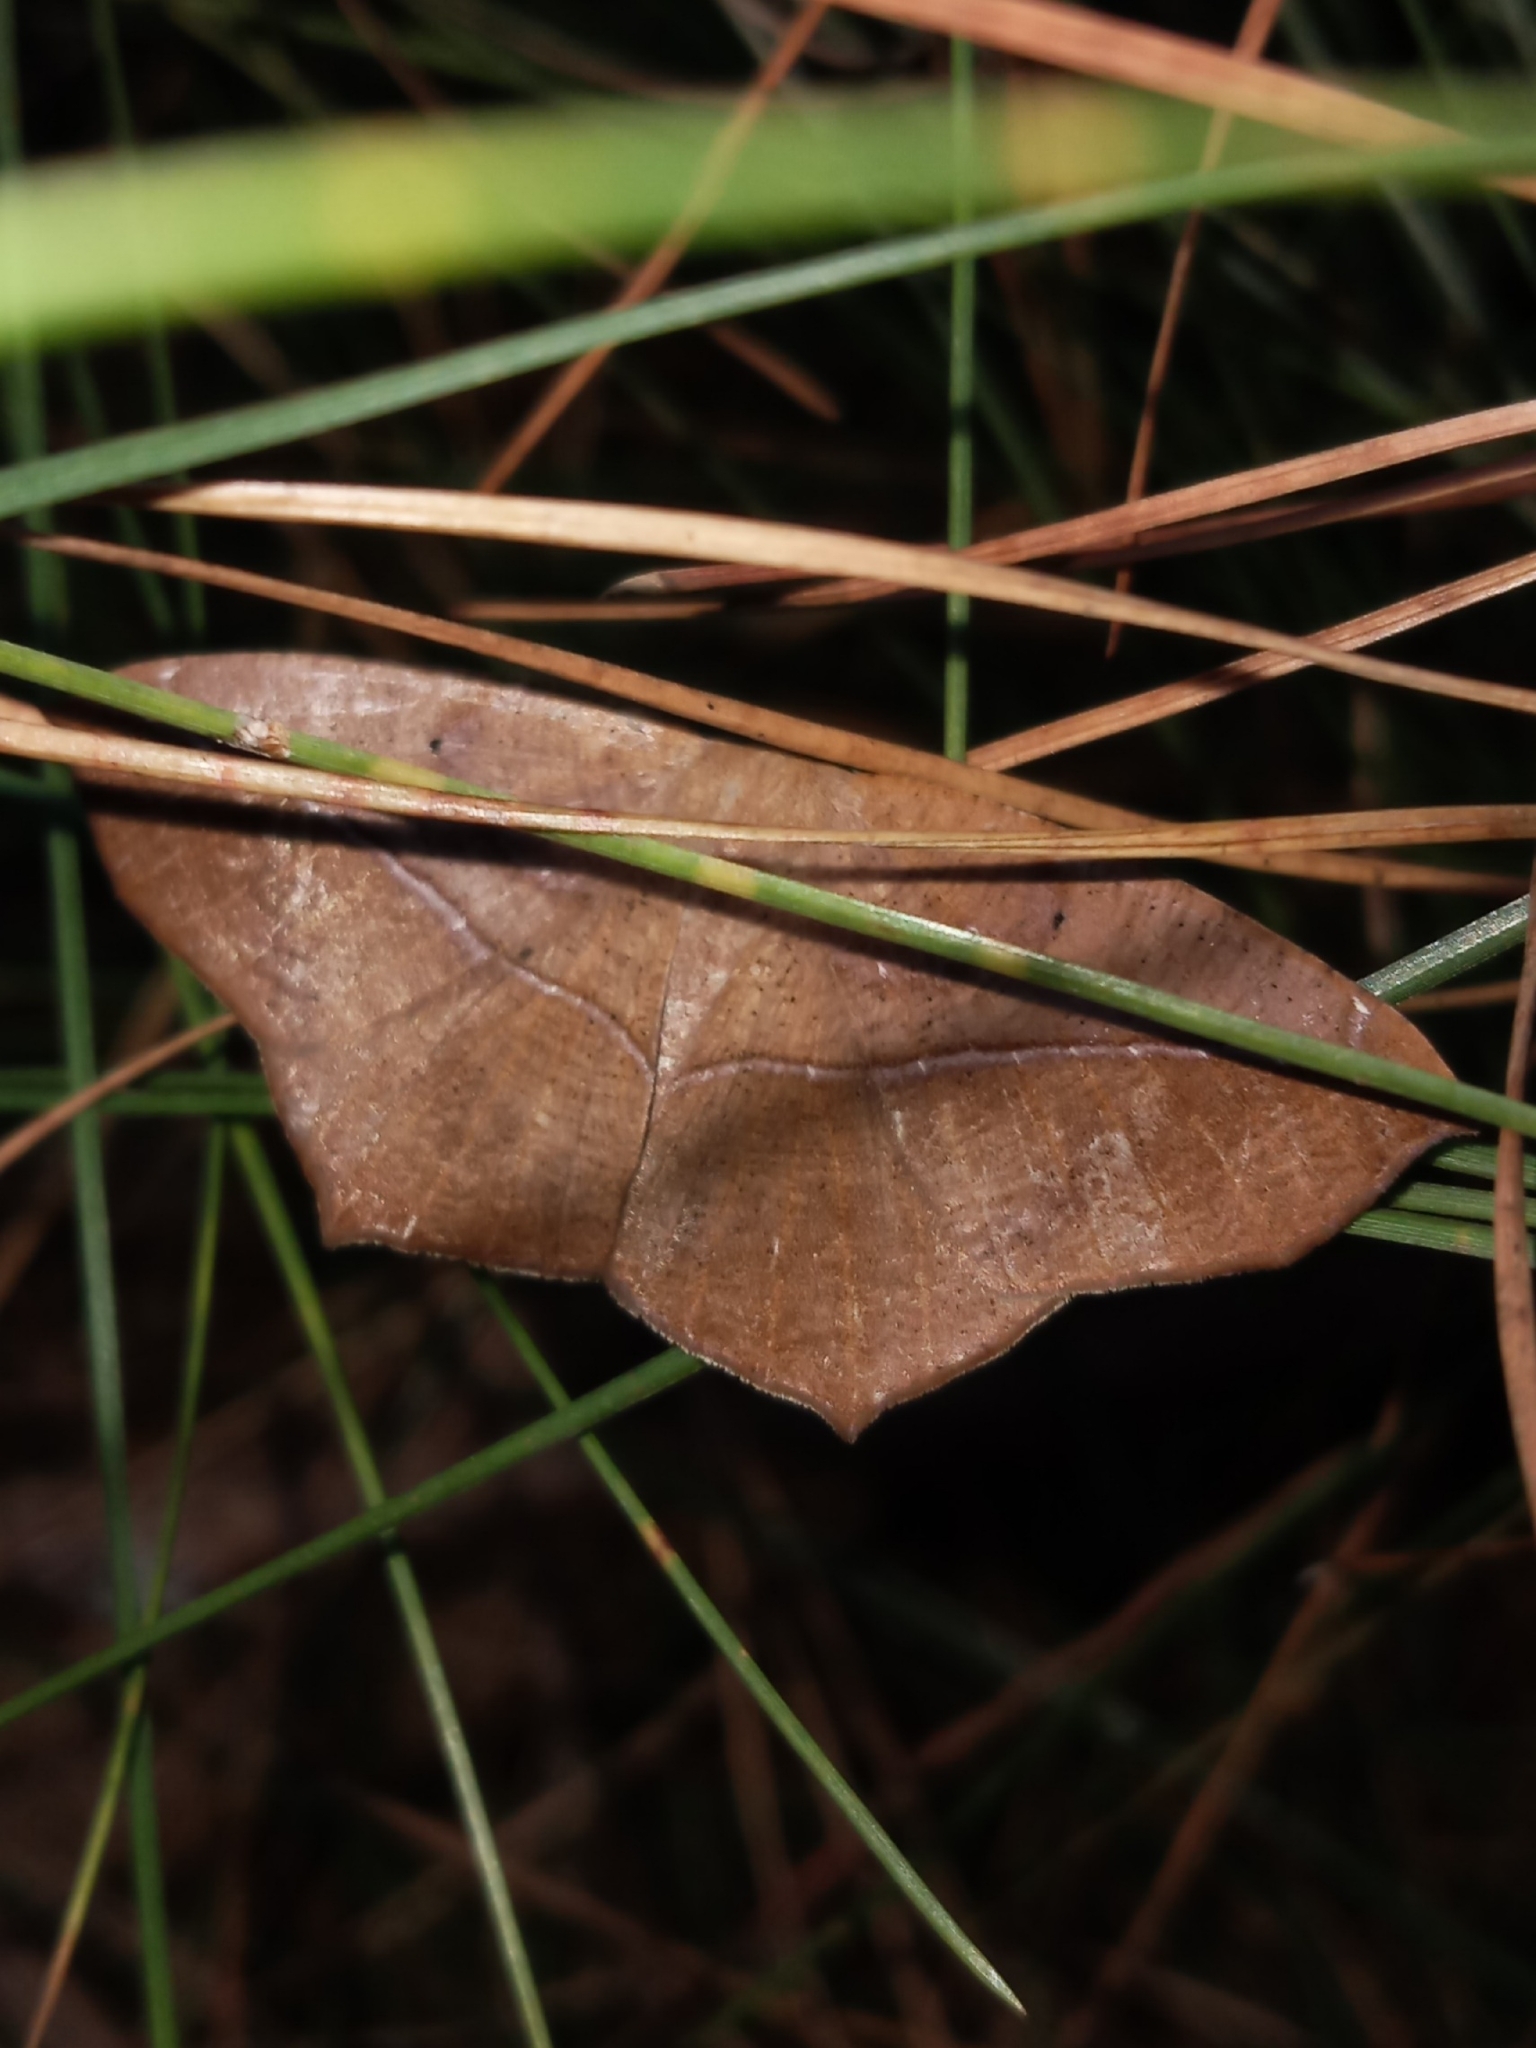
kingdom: Animalia
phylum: Arthropoda
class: Insecta
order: Lepidoptera
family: Geometridae
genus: Prochoerodes
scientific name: Prochoerodes lineola
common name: Large maple spanworm
